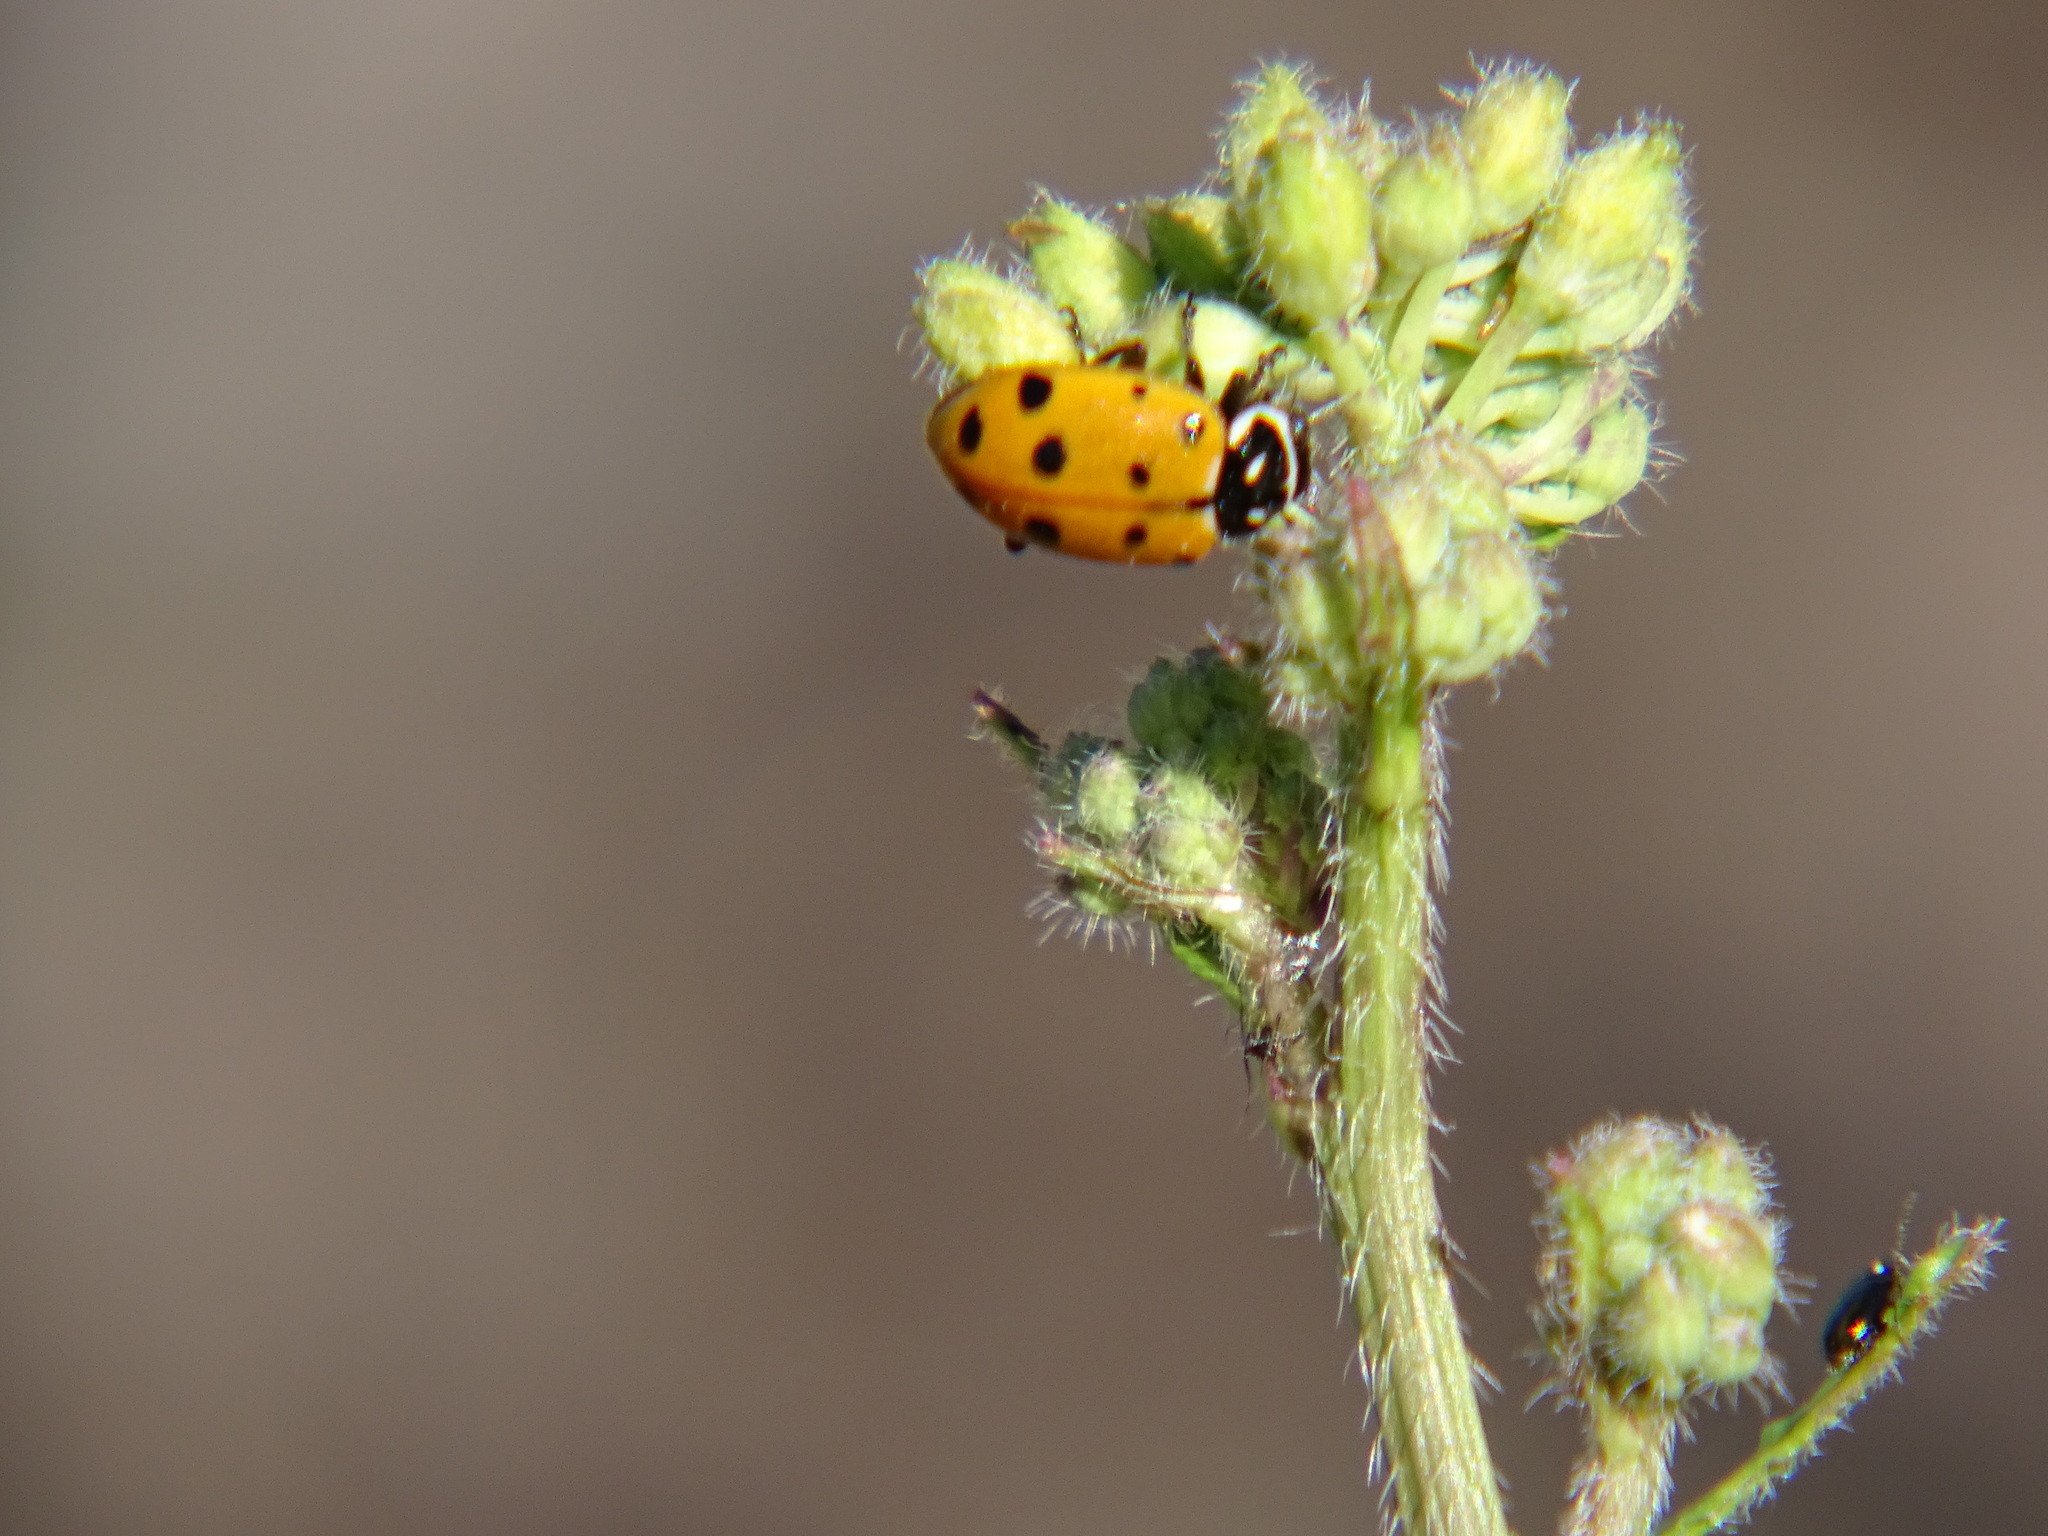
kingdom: Animalia
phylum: Arthropoda
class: Insecta
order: Coleoptera
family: Coccinellidae
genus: Hippodamia
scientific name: Hippodamia convergens
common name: Convergent lady beetle
